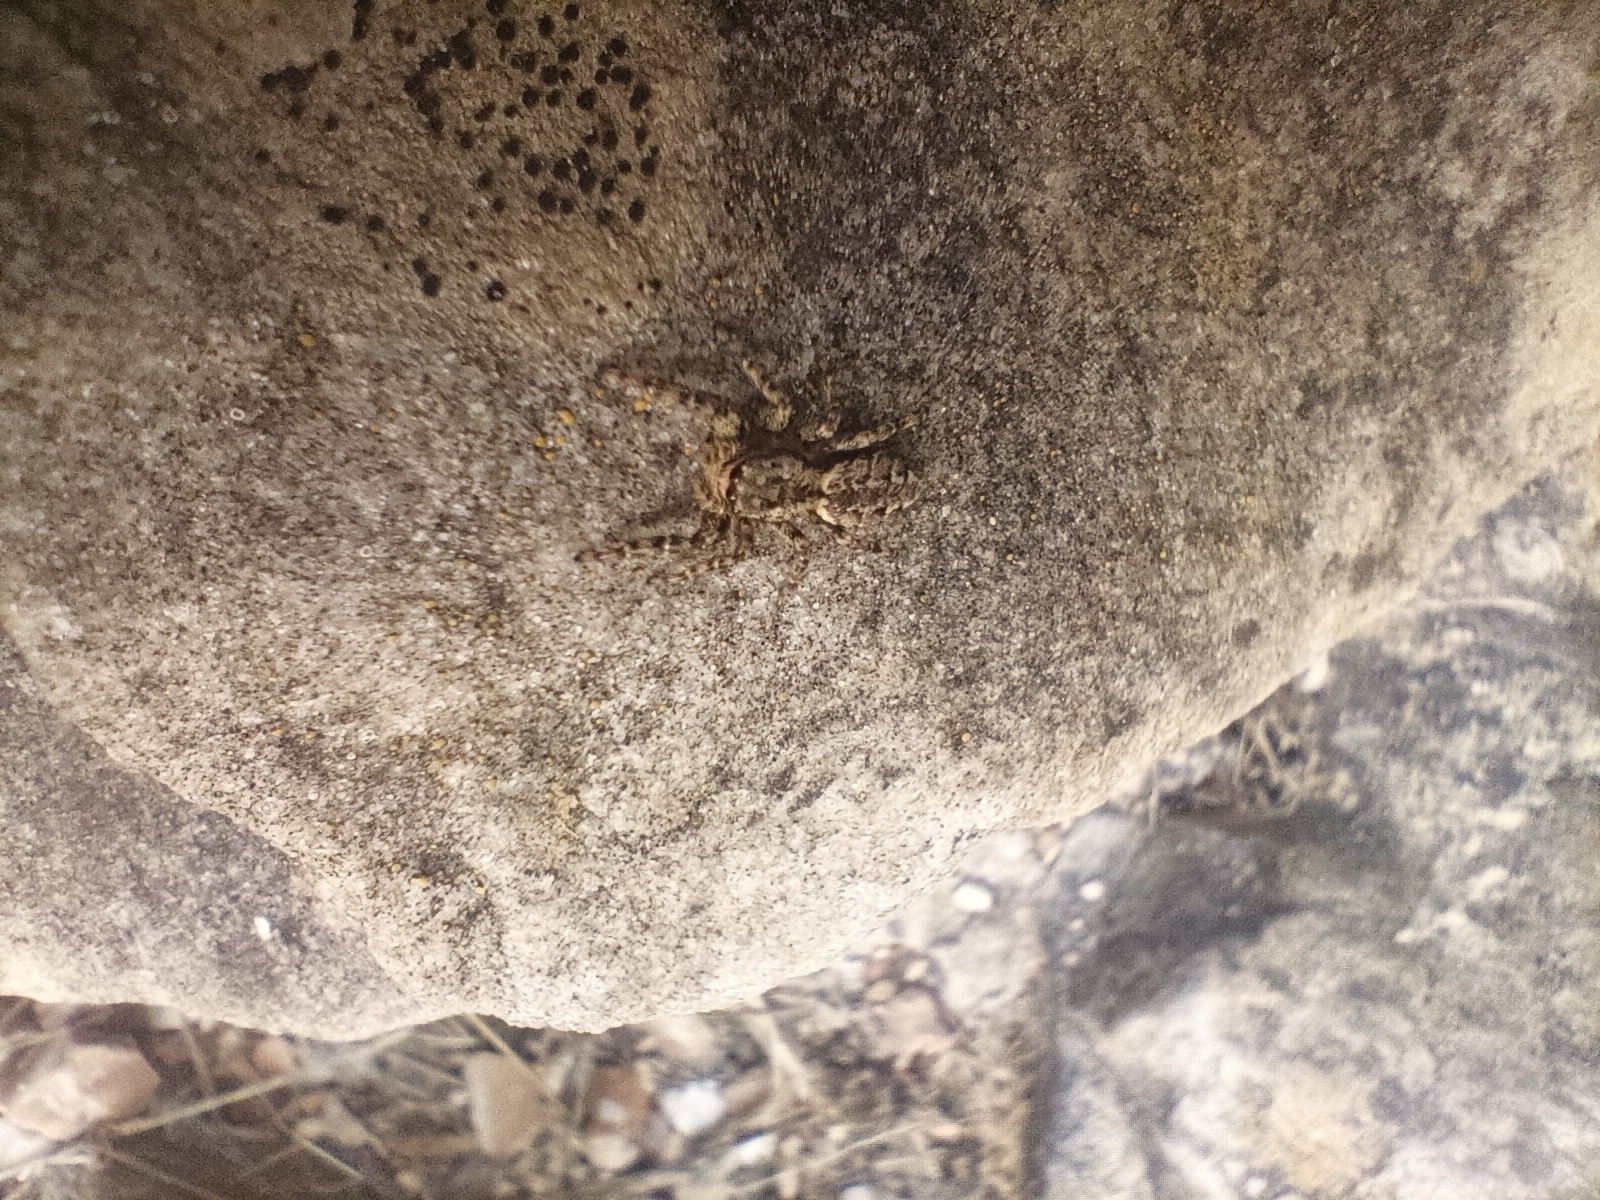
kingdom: Animalia
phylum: Arthropoda
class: Arachnida
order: Araneae
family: Salticidae
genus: Marpissa
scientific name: Marpissa muscosa
